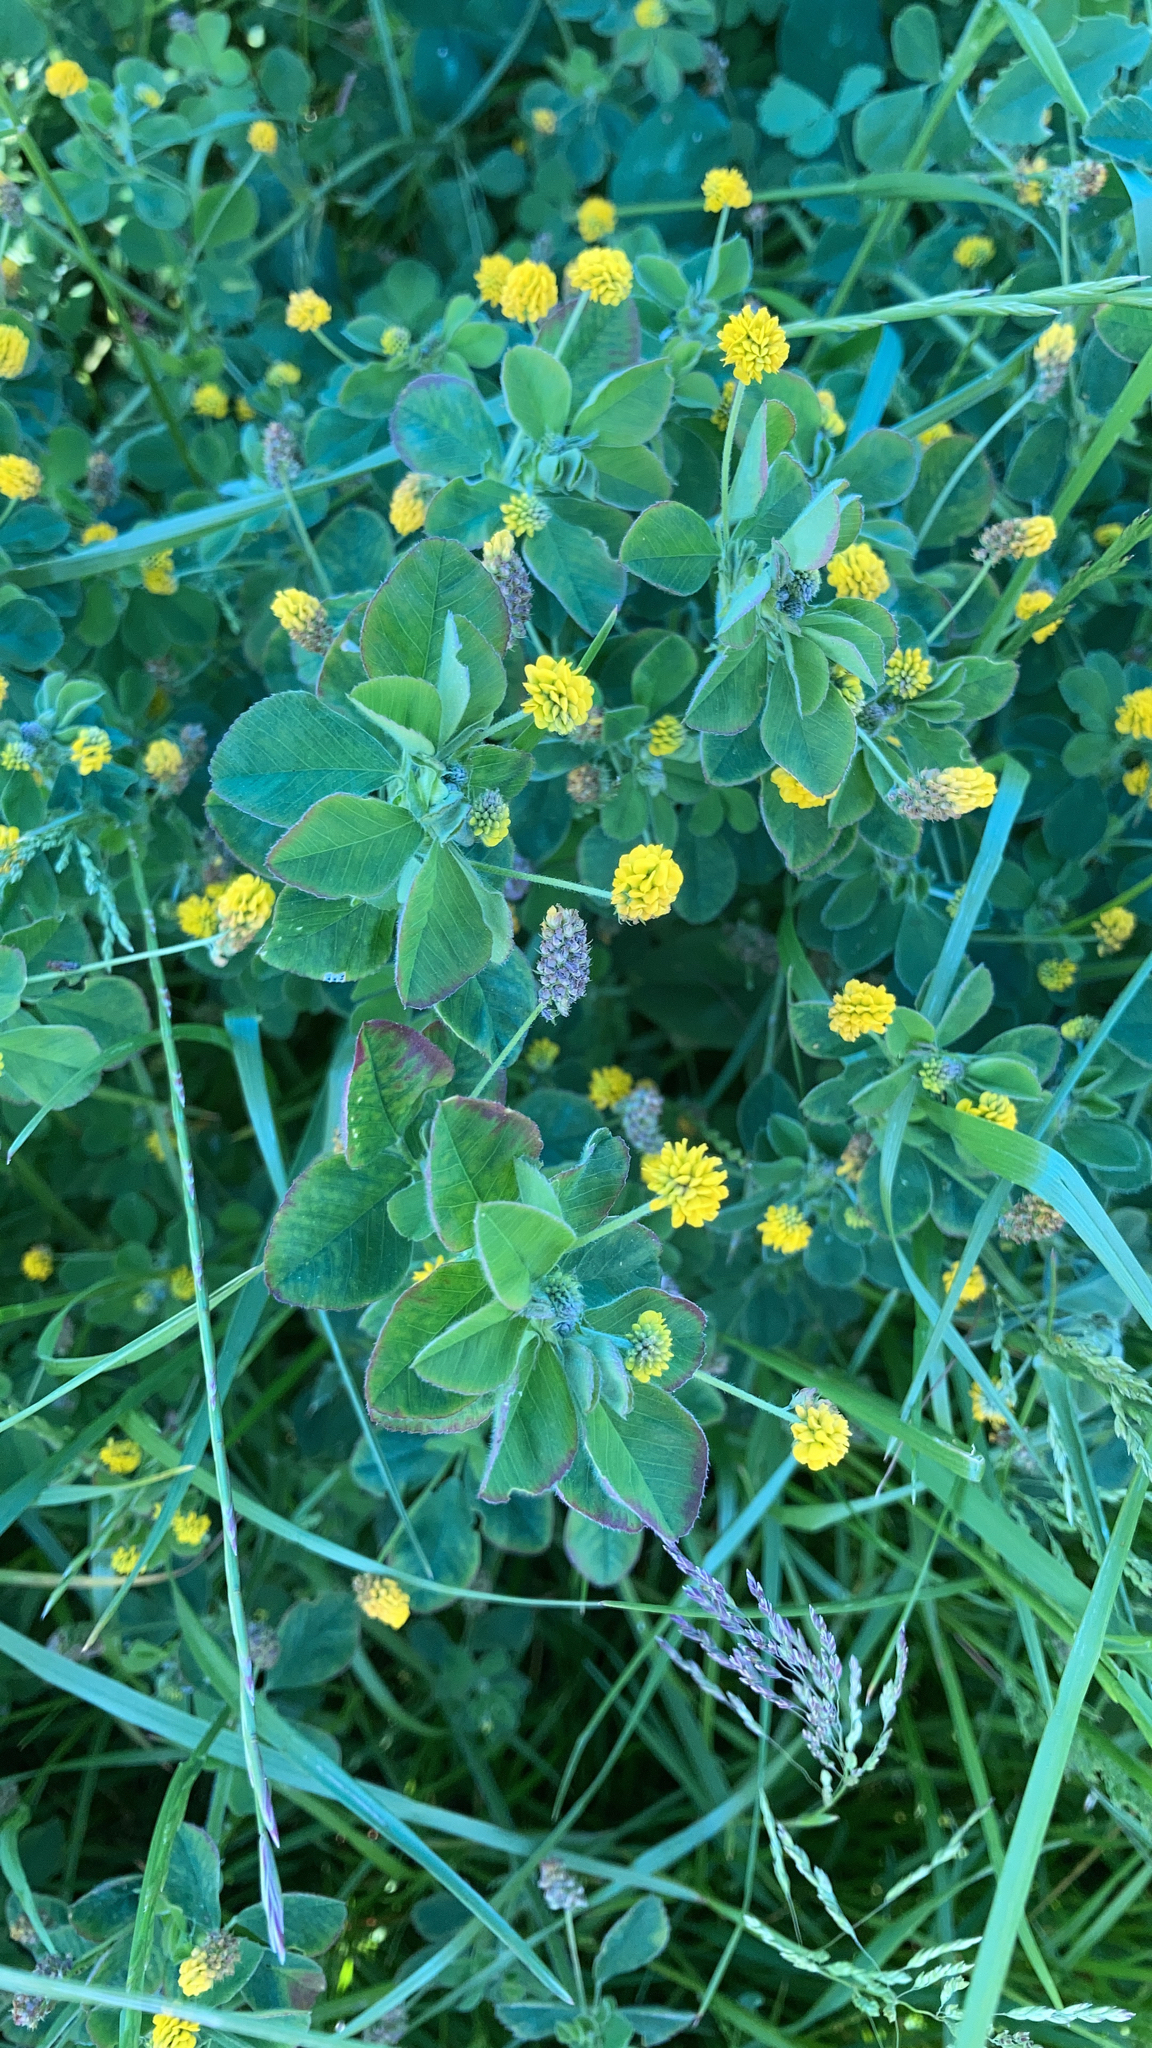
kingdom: Plantae
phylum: Tracheophyta
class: Magnoliopsida
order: Fabales
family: Fabaceae
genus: Medicago
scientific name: Medicago lupulina
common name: Black medick
